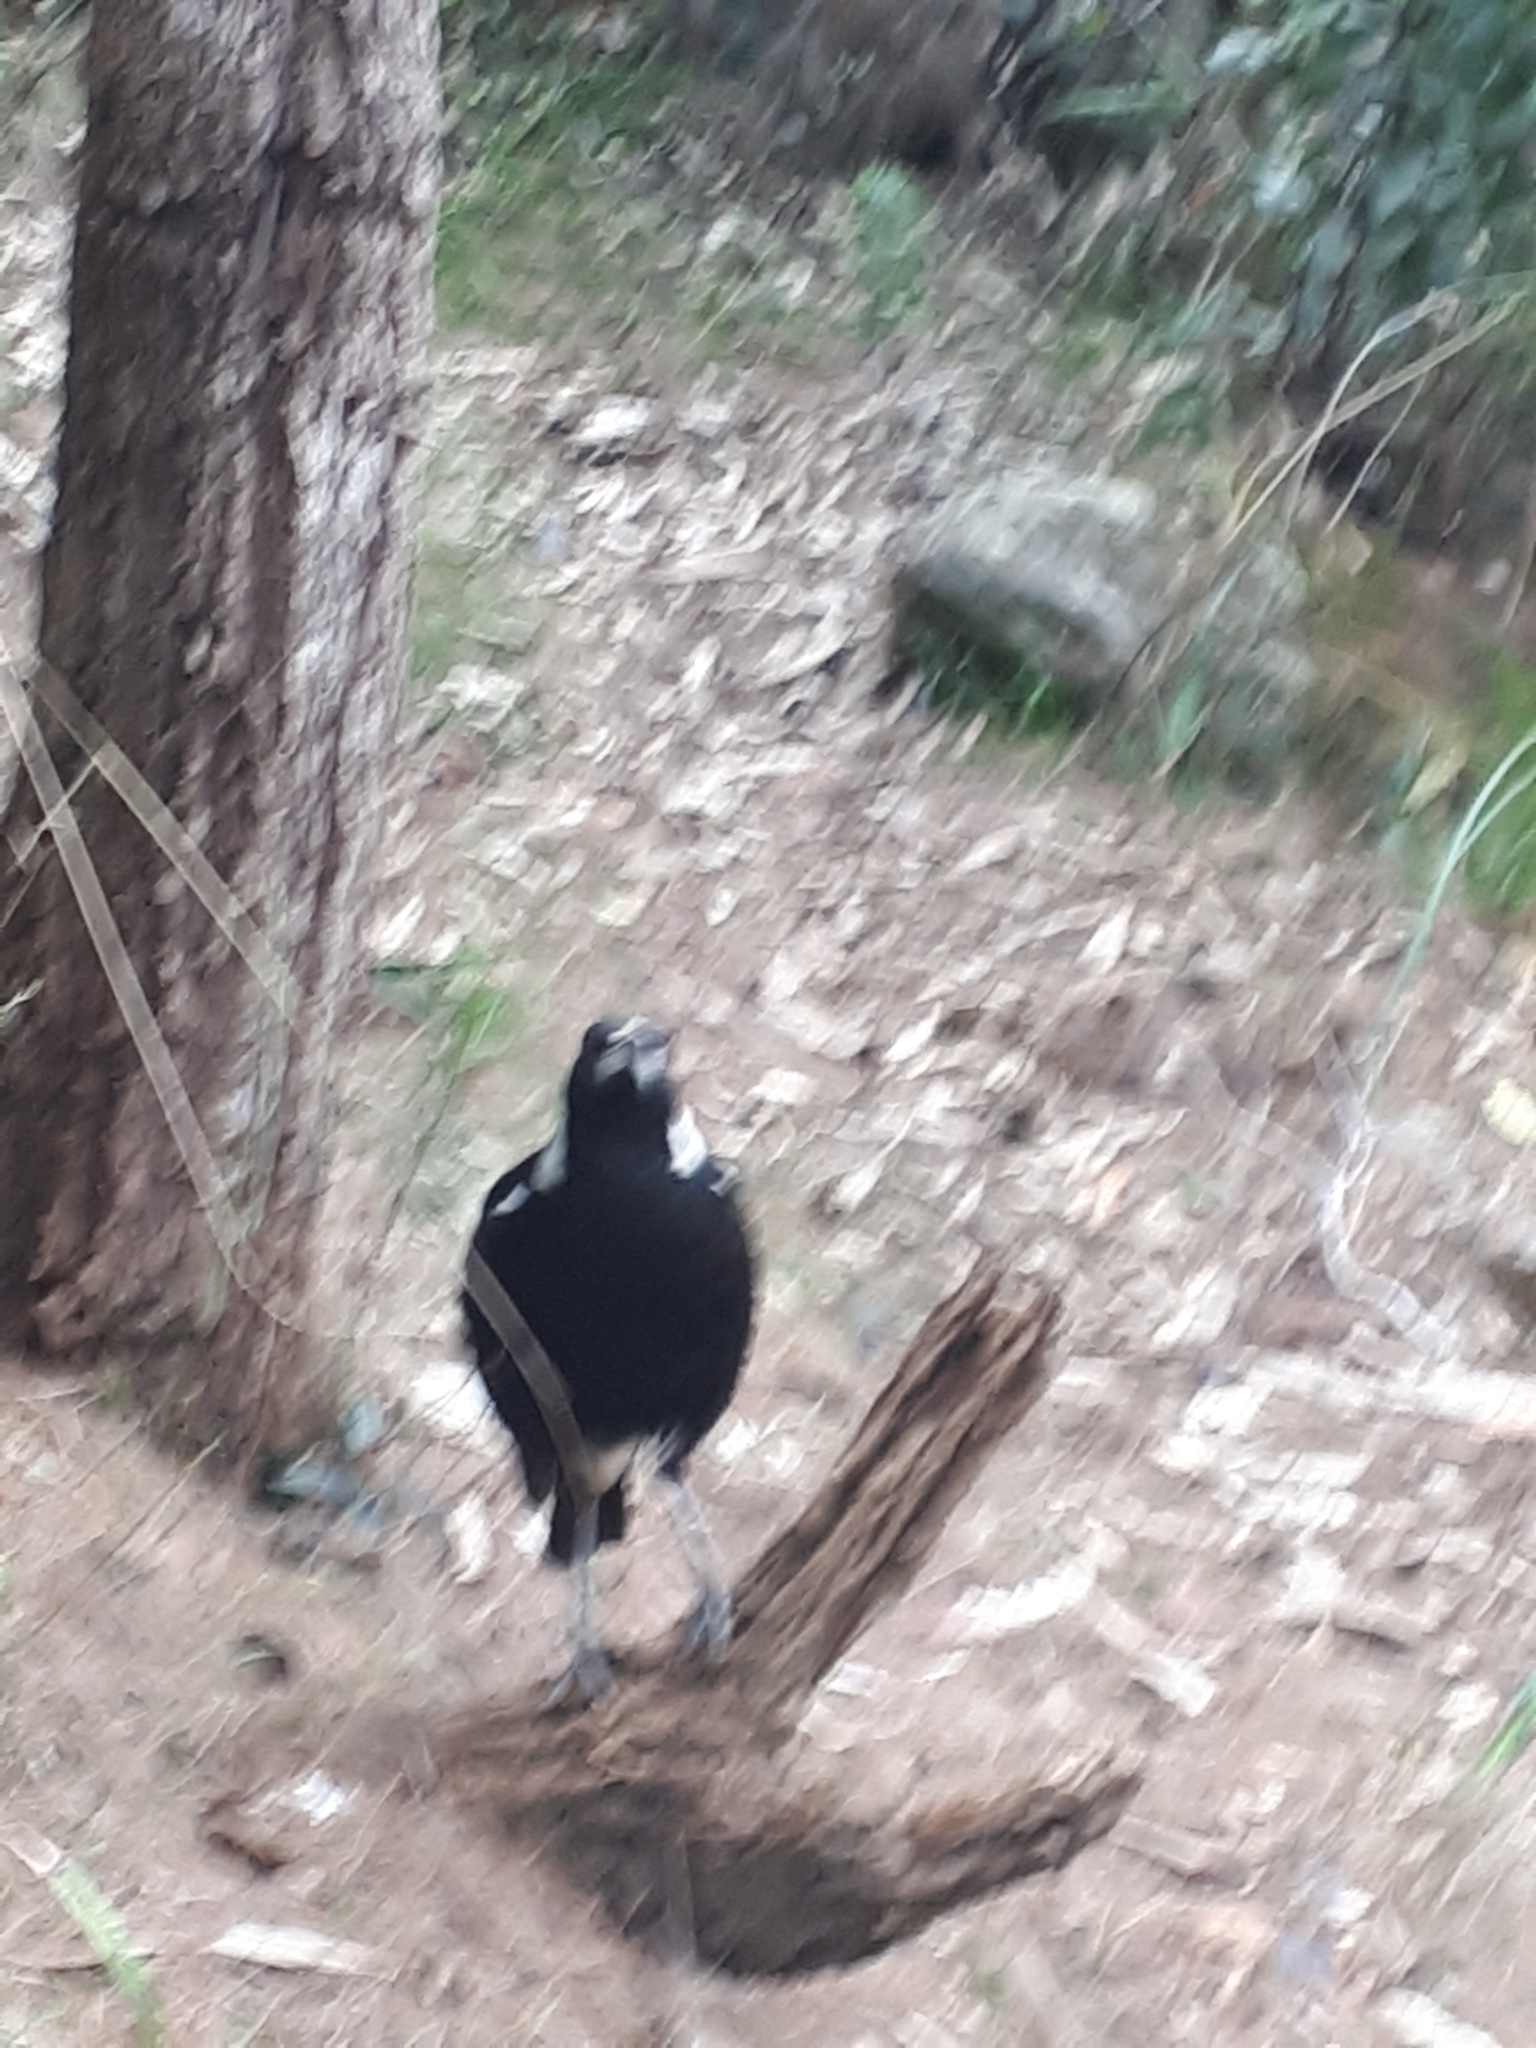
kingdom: Animalia
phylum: Chordata
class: Aves
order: Passeriformes
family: Cracticidae
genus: Gymnorhina
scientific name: Gymnorhina tibicen
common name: Australian magpie
